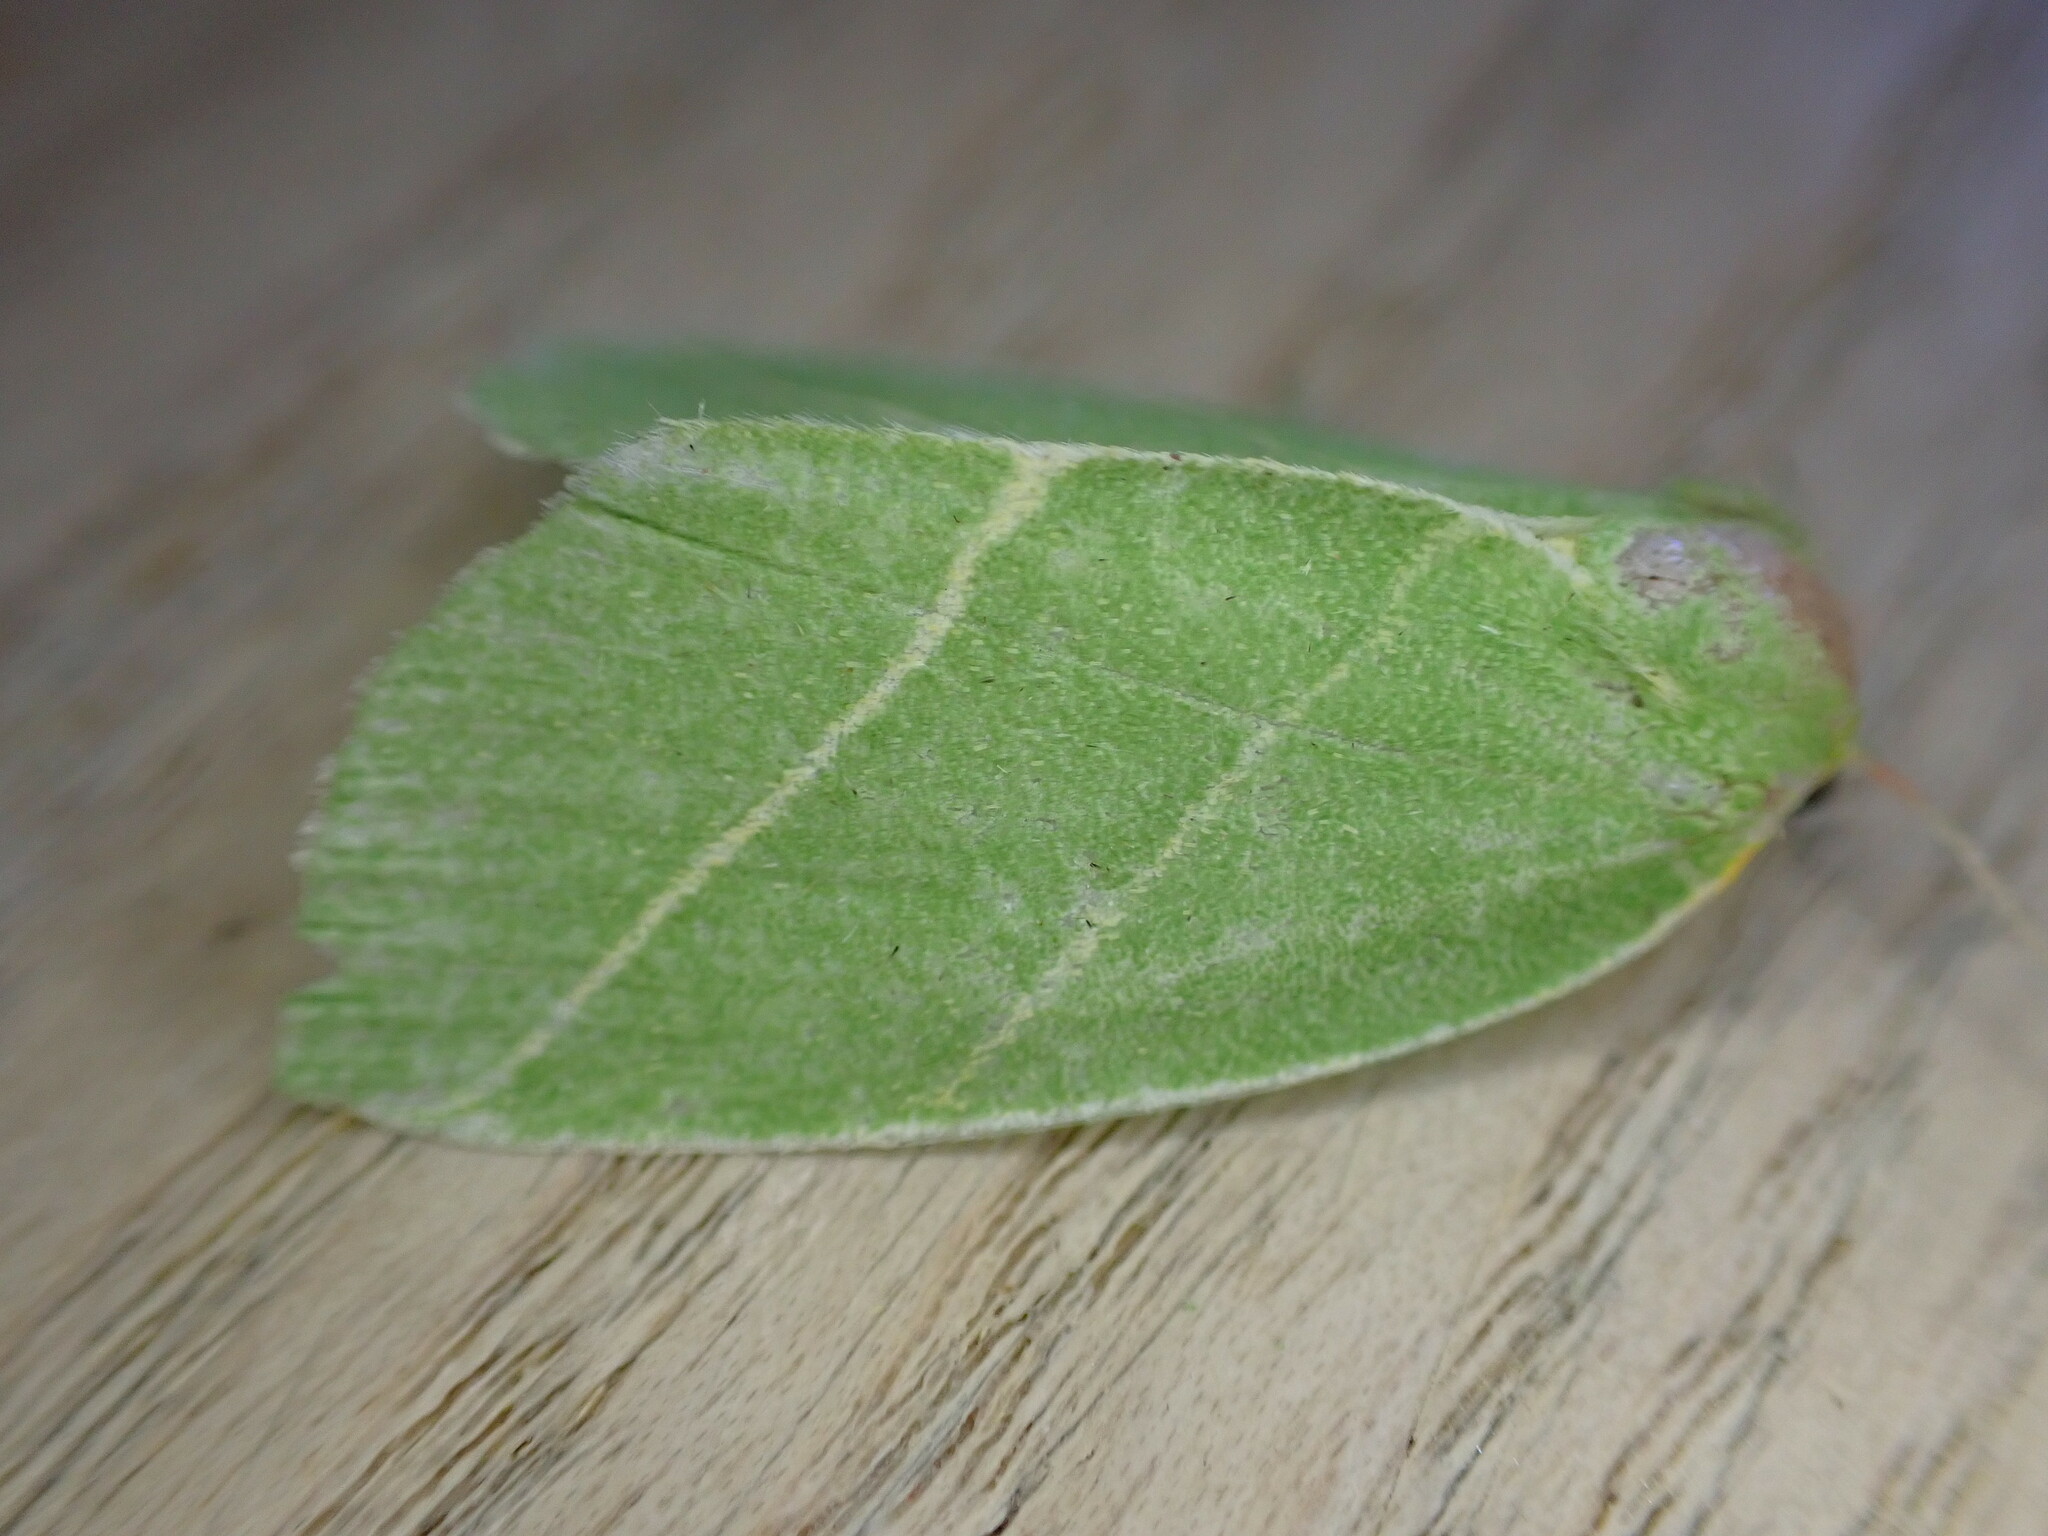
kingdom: Animalia
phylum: Arthropoda
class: Insecta
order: Lepidoptera
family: Nolidae
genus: Bena
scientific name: Bena bicolorana
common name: Scarce silver-lines
